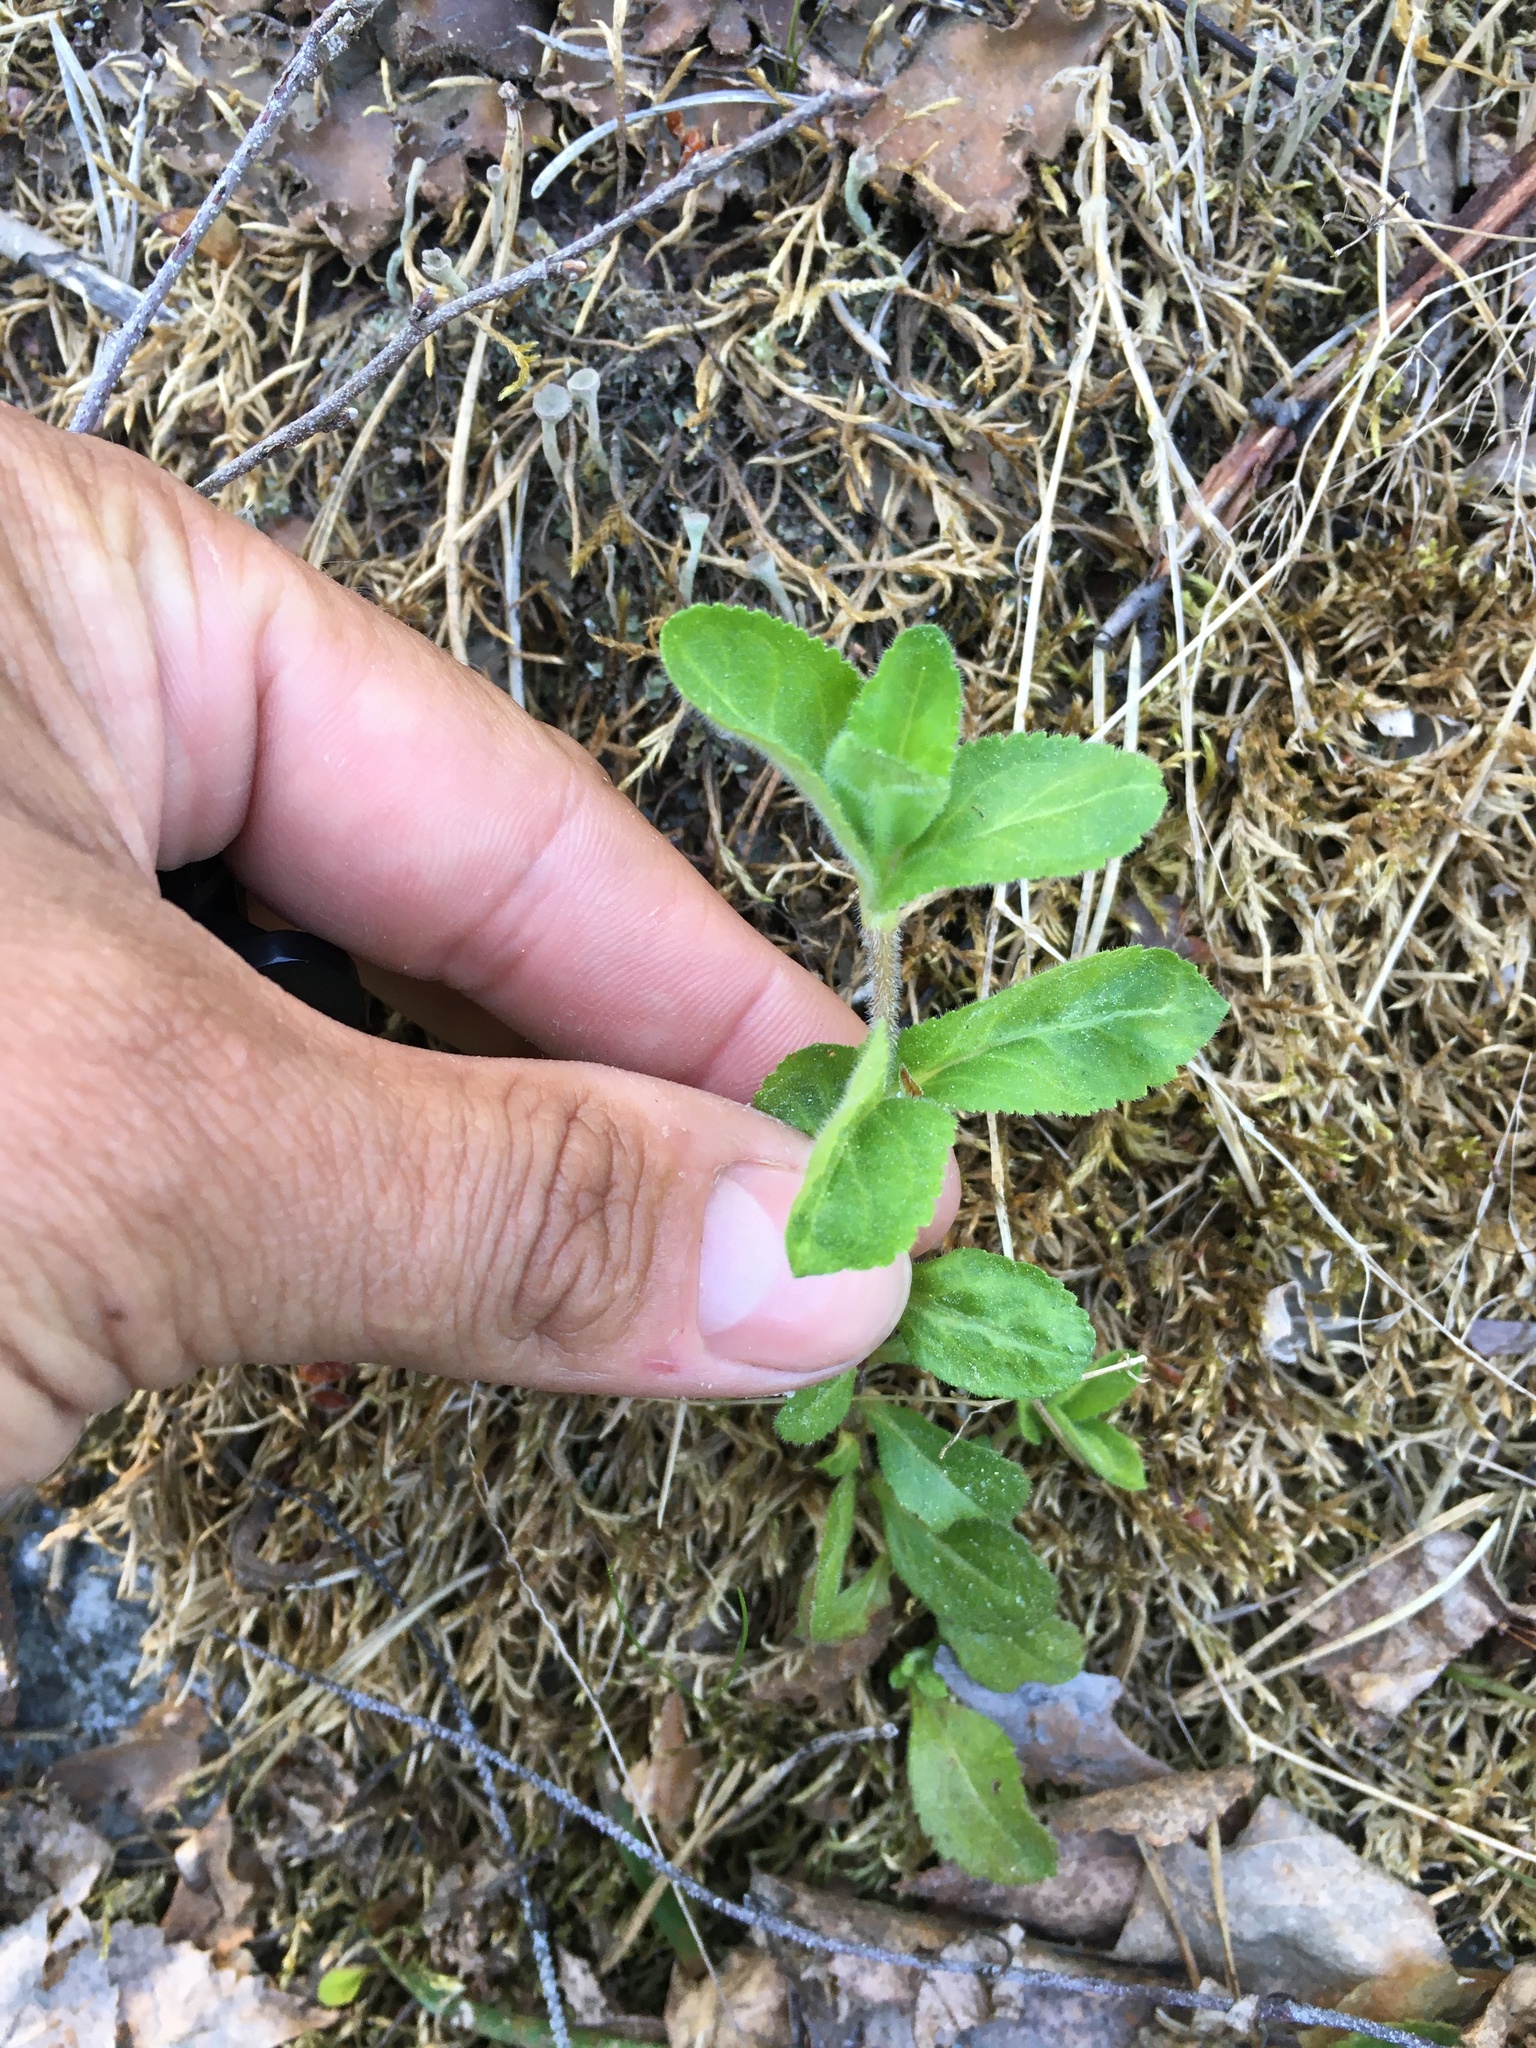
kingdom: Plantae
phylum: Tracheophyta
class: Magnoliopsida
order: Lamiales
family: Plantaginaceae
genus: Veronica
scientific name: Veronica officinalis
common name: Common speedwell
